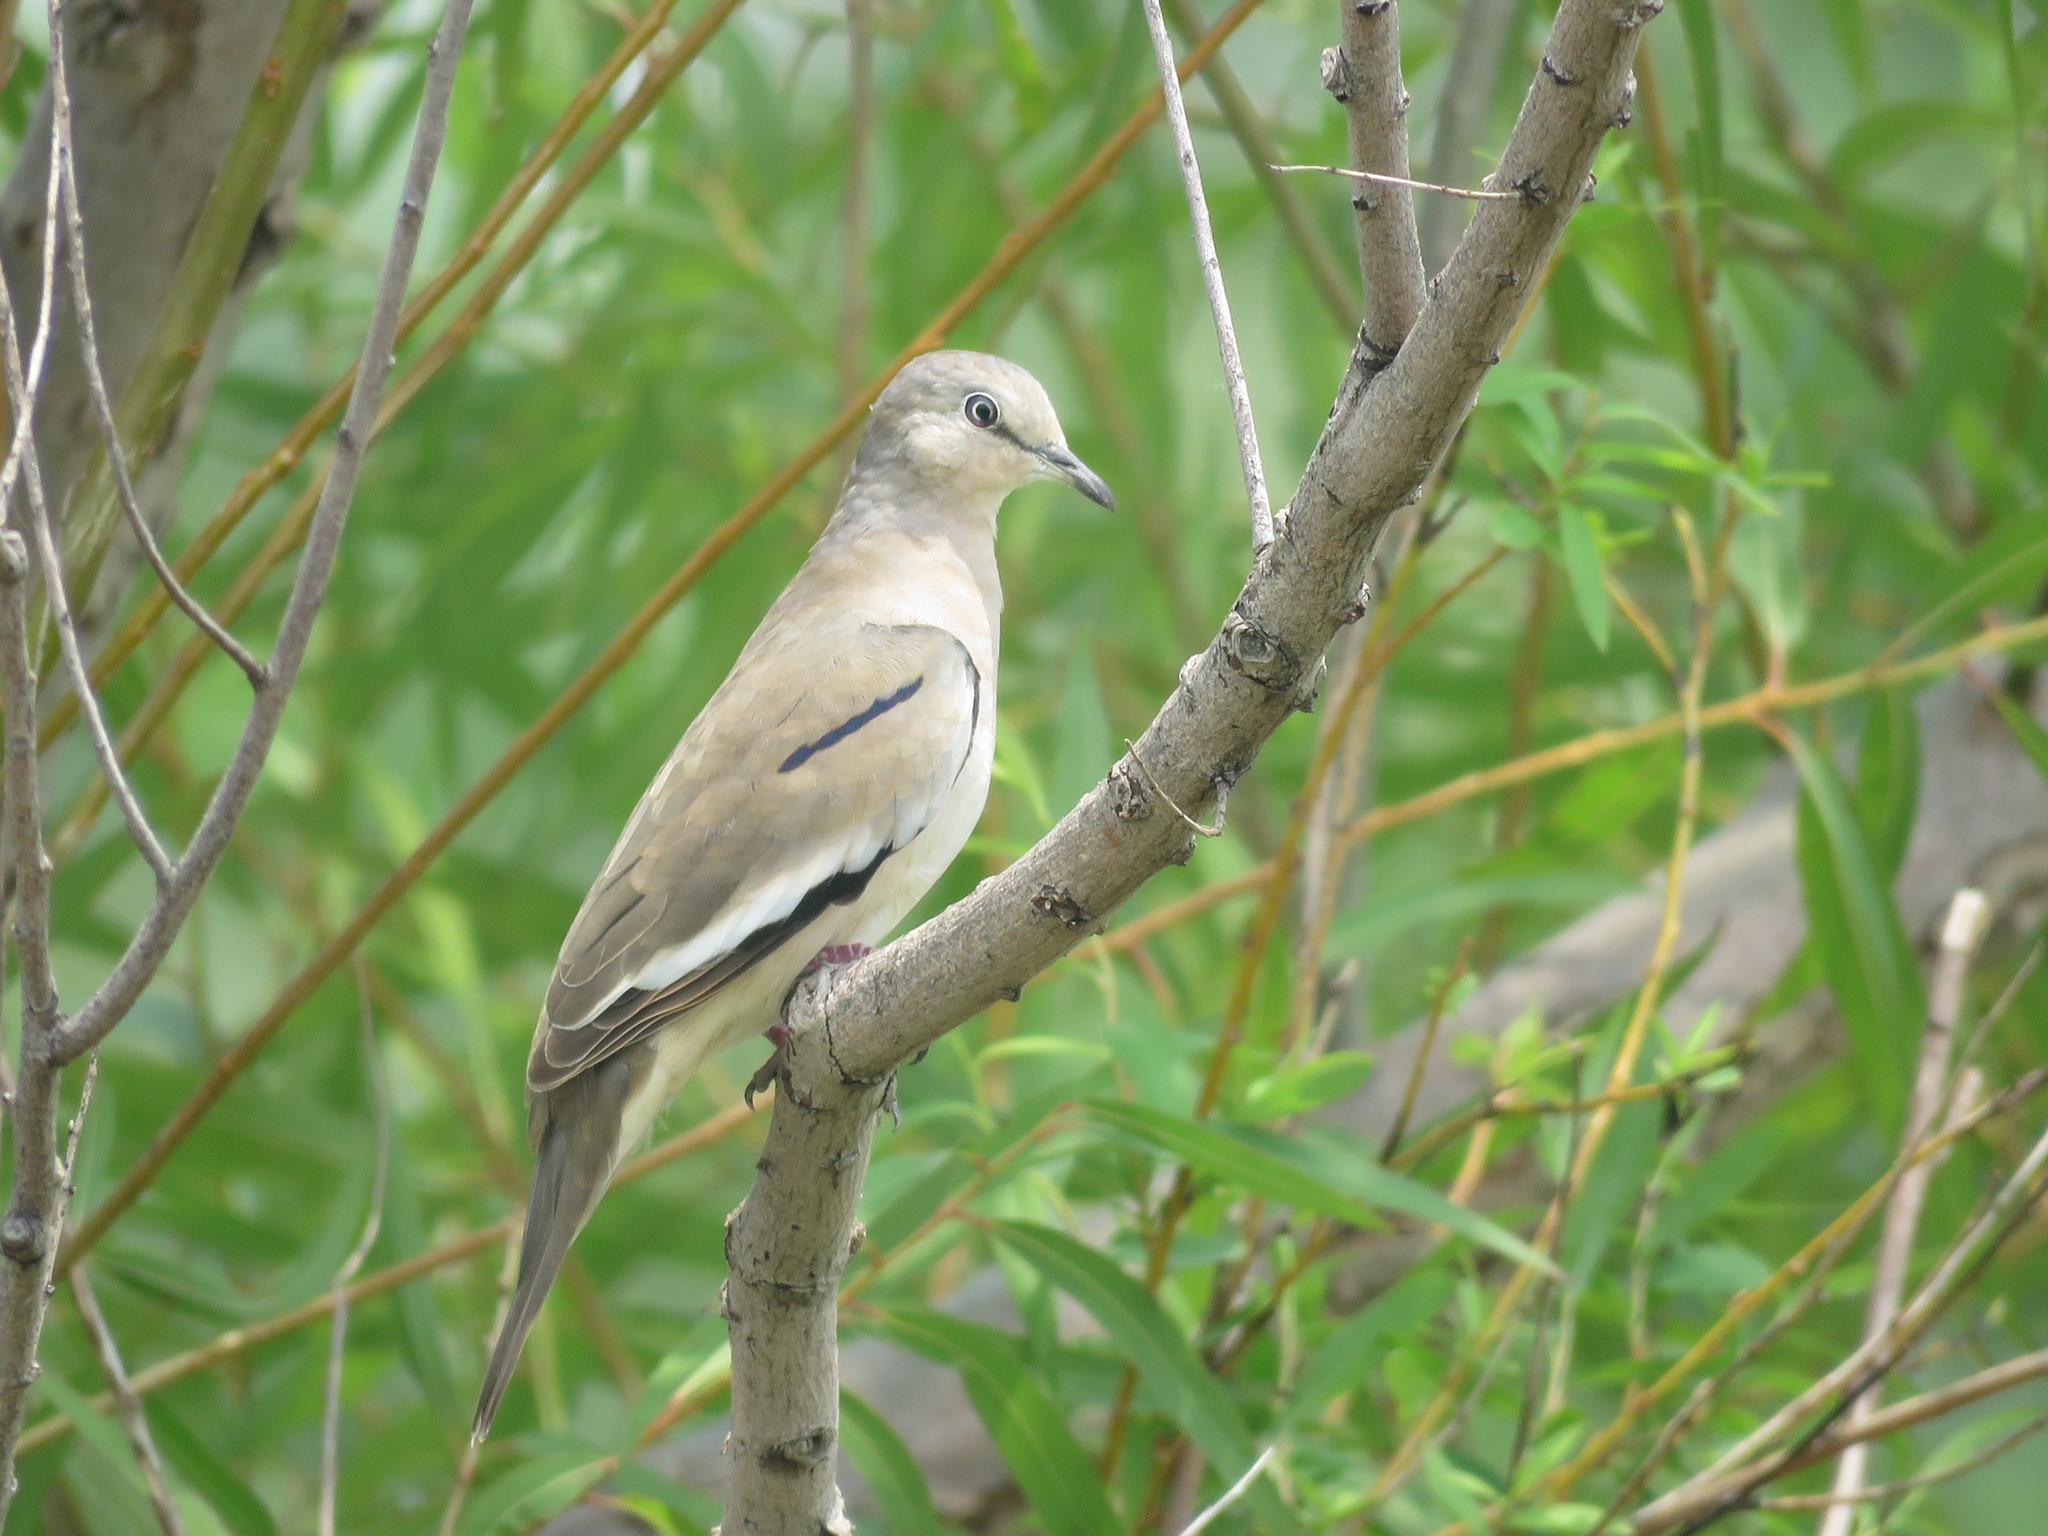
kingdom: Animalia
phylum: Chordata
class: Aves
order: Columbiformes
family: Columbidae
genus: Columbina
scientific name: Columbina picui
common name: Picui ground dove
